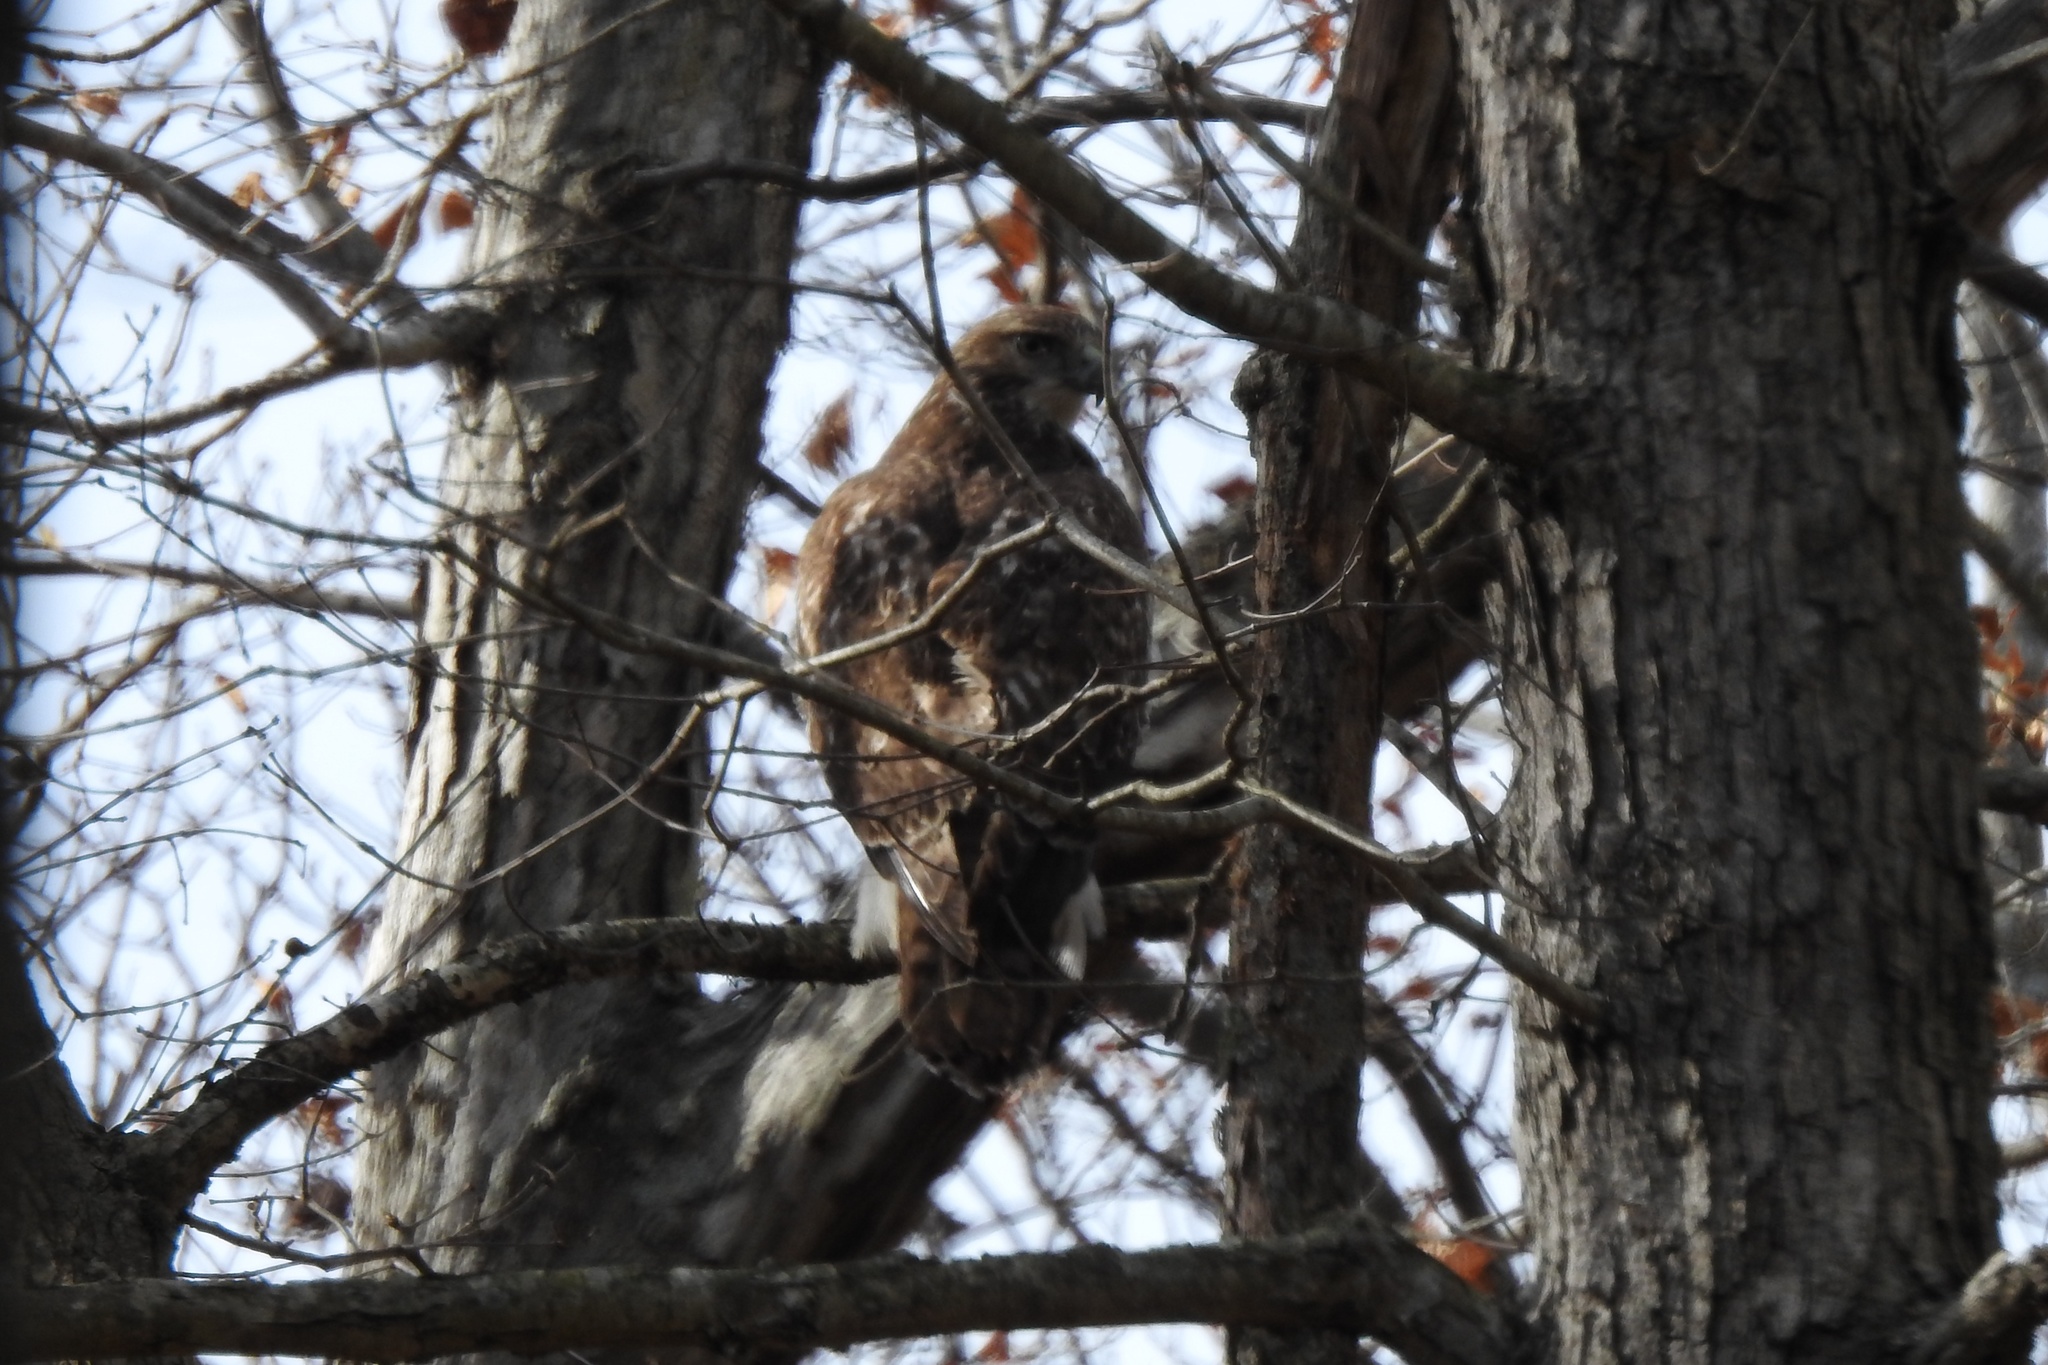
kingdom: Animalia
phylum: Chordata
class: Aves
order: Accipitriformes
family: Accipitridae
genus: Buteo
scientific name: Buteo jamaicensis
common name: Red-tailed hawk
